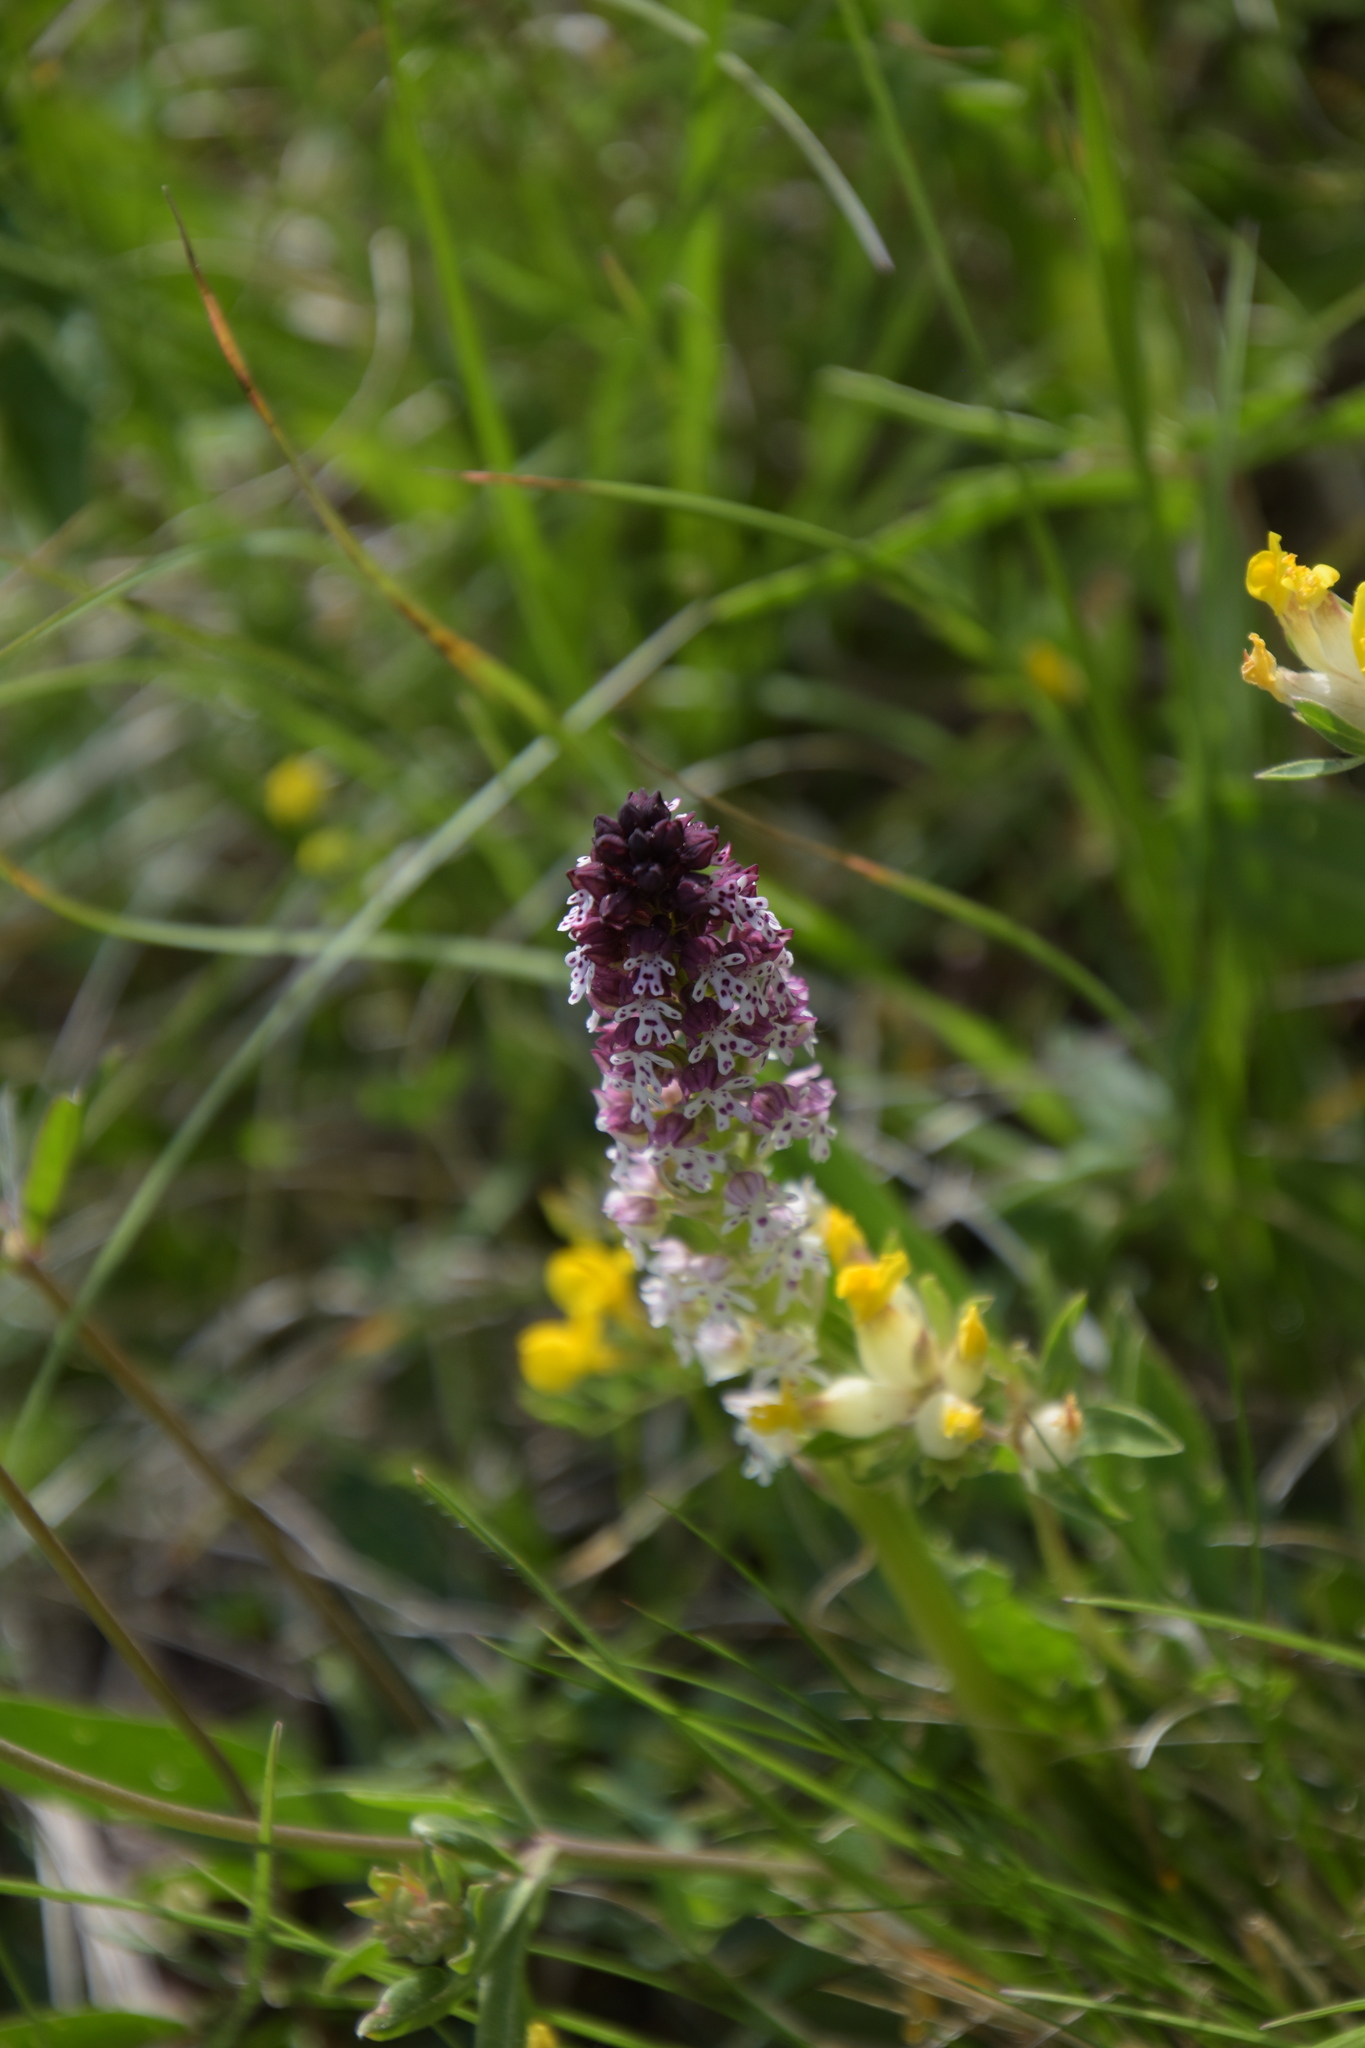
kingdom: Plantae
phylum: Tracheophyta
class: Liliopsida
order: Asparagales
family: Orchidaceae
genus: Neotinea
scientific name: Neotinea ustulata
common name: Burnt orchid
